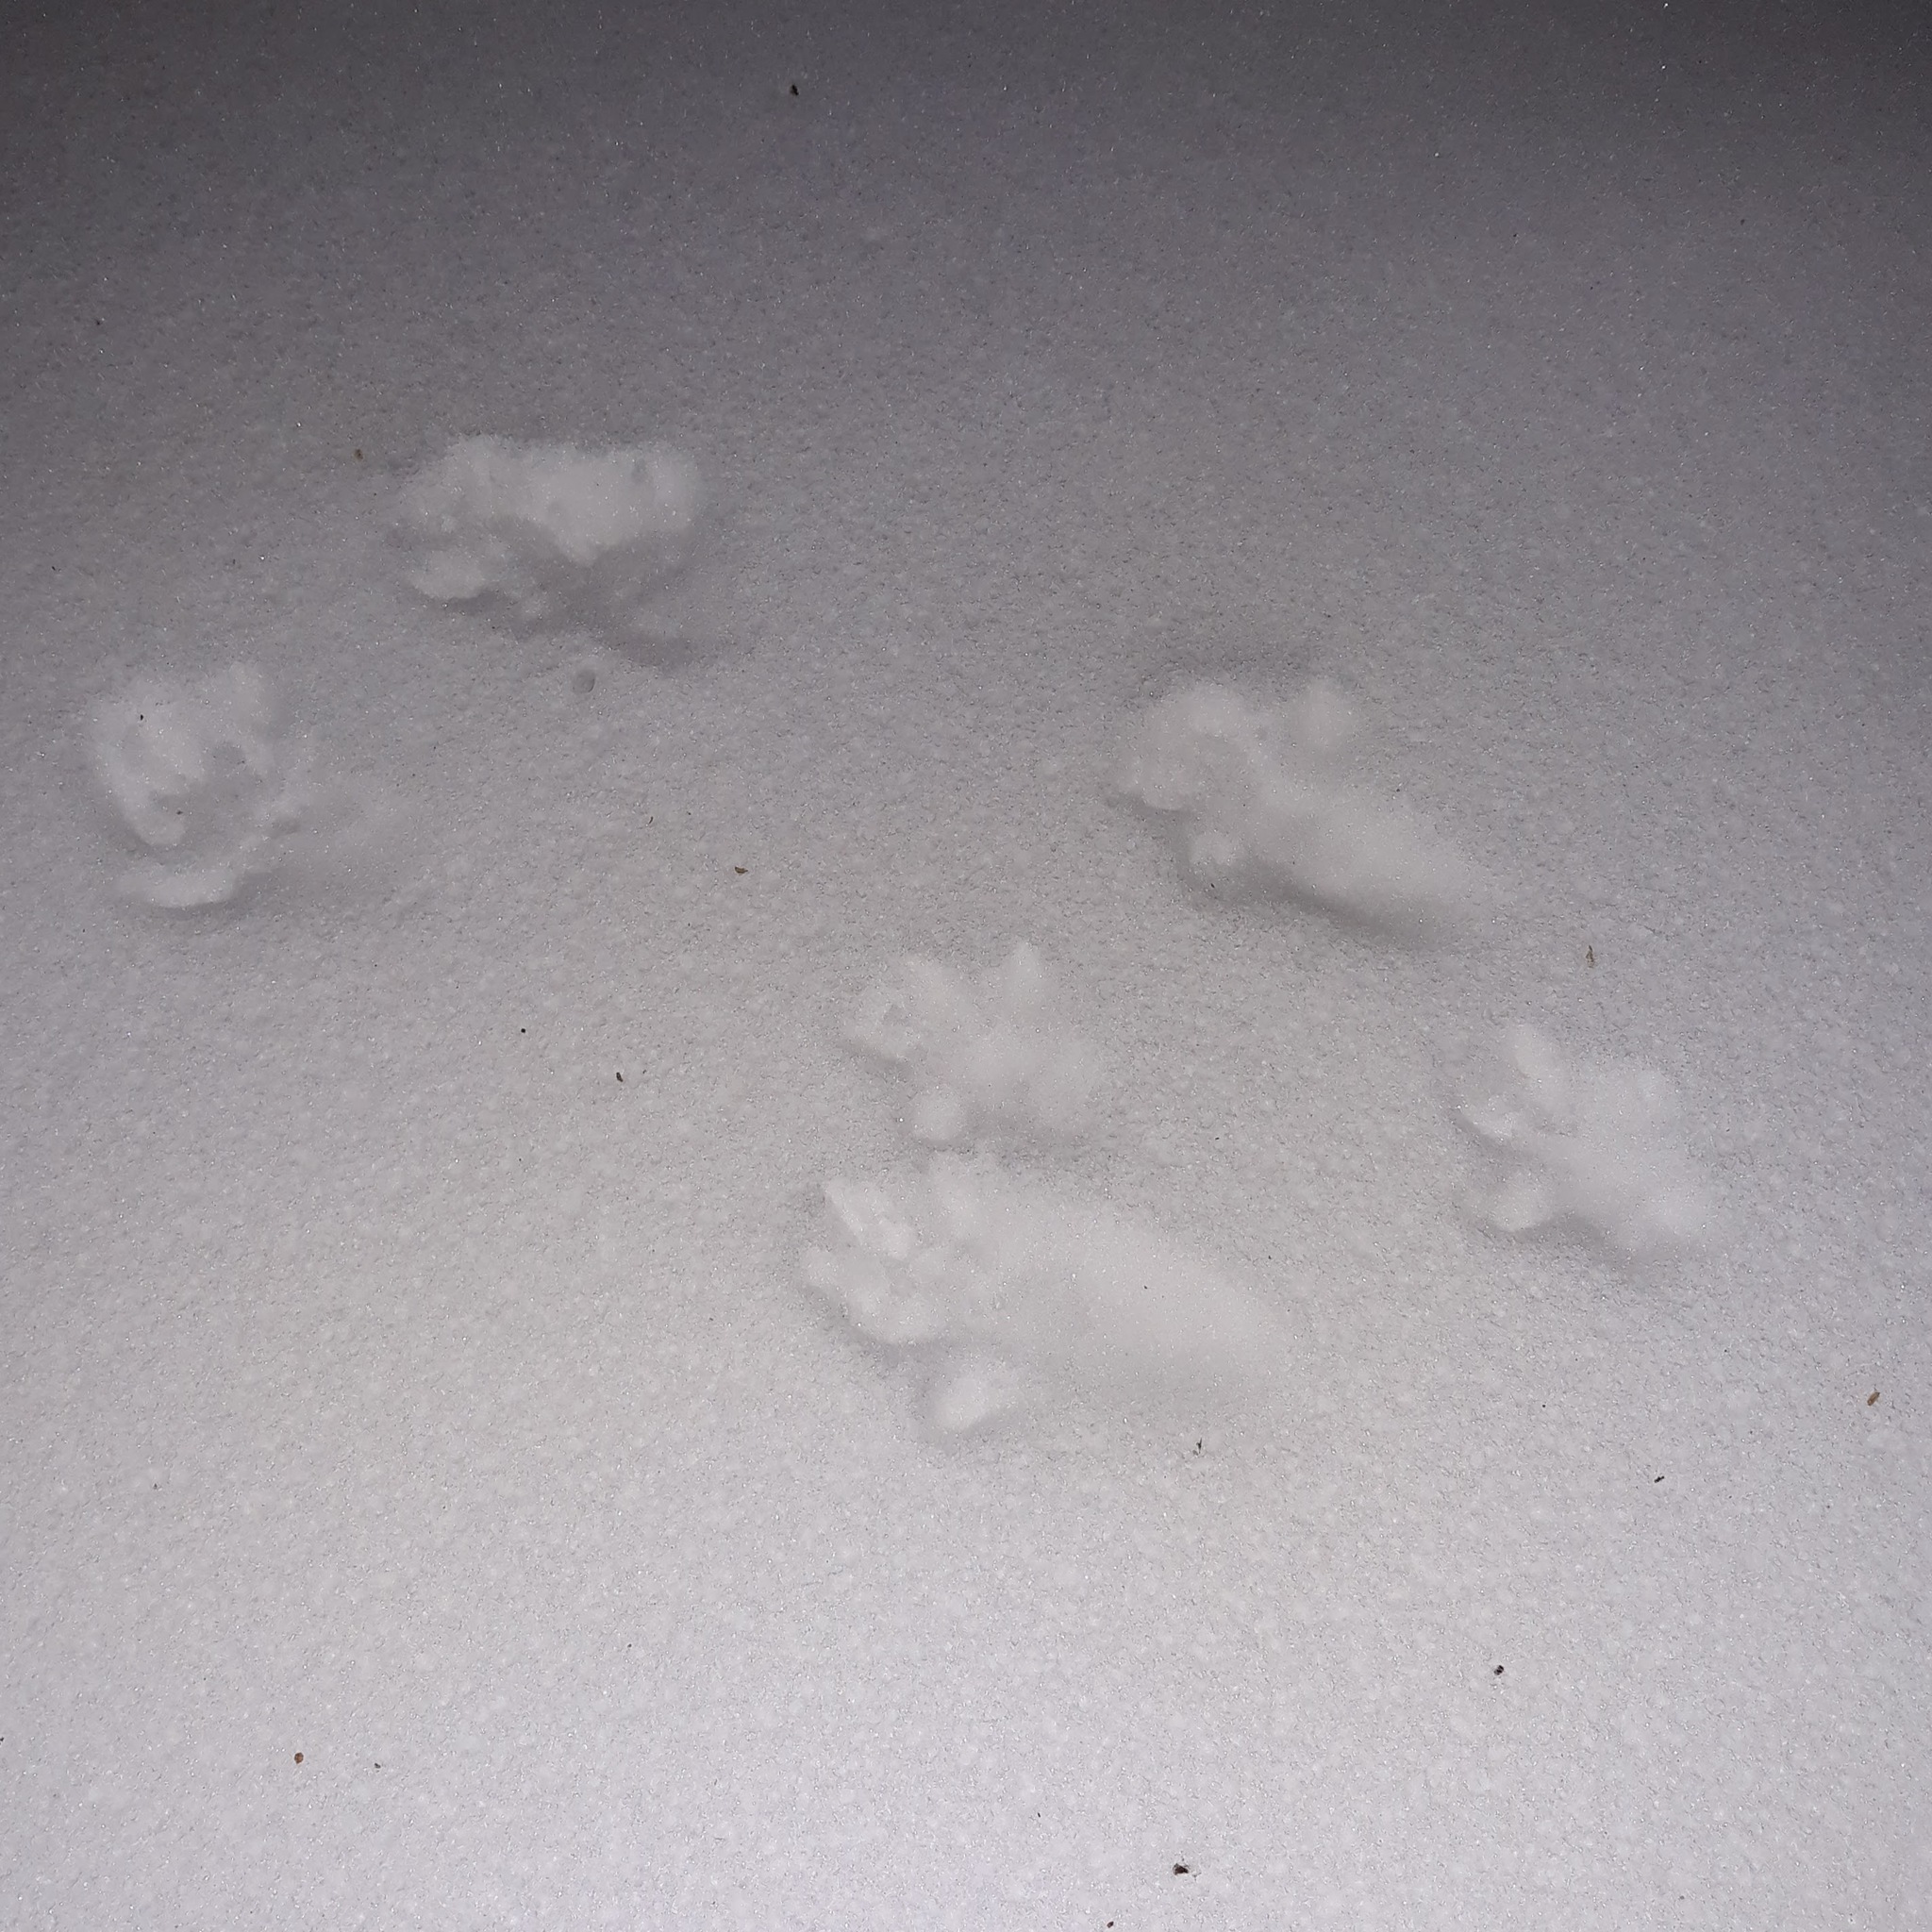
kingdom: Animalia
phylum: Chordata
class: Mammalia
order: Carnivora
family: Mustelidae
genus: Mustela
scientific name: Mustela
